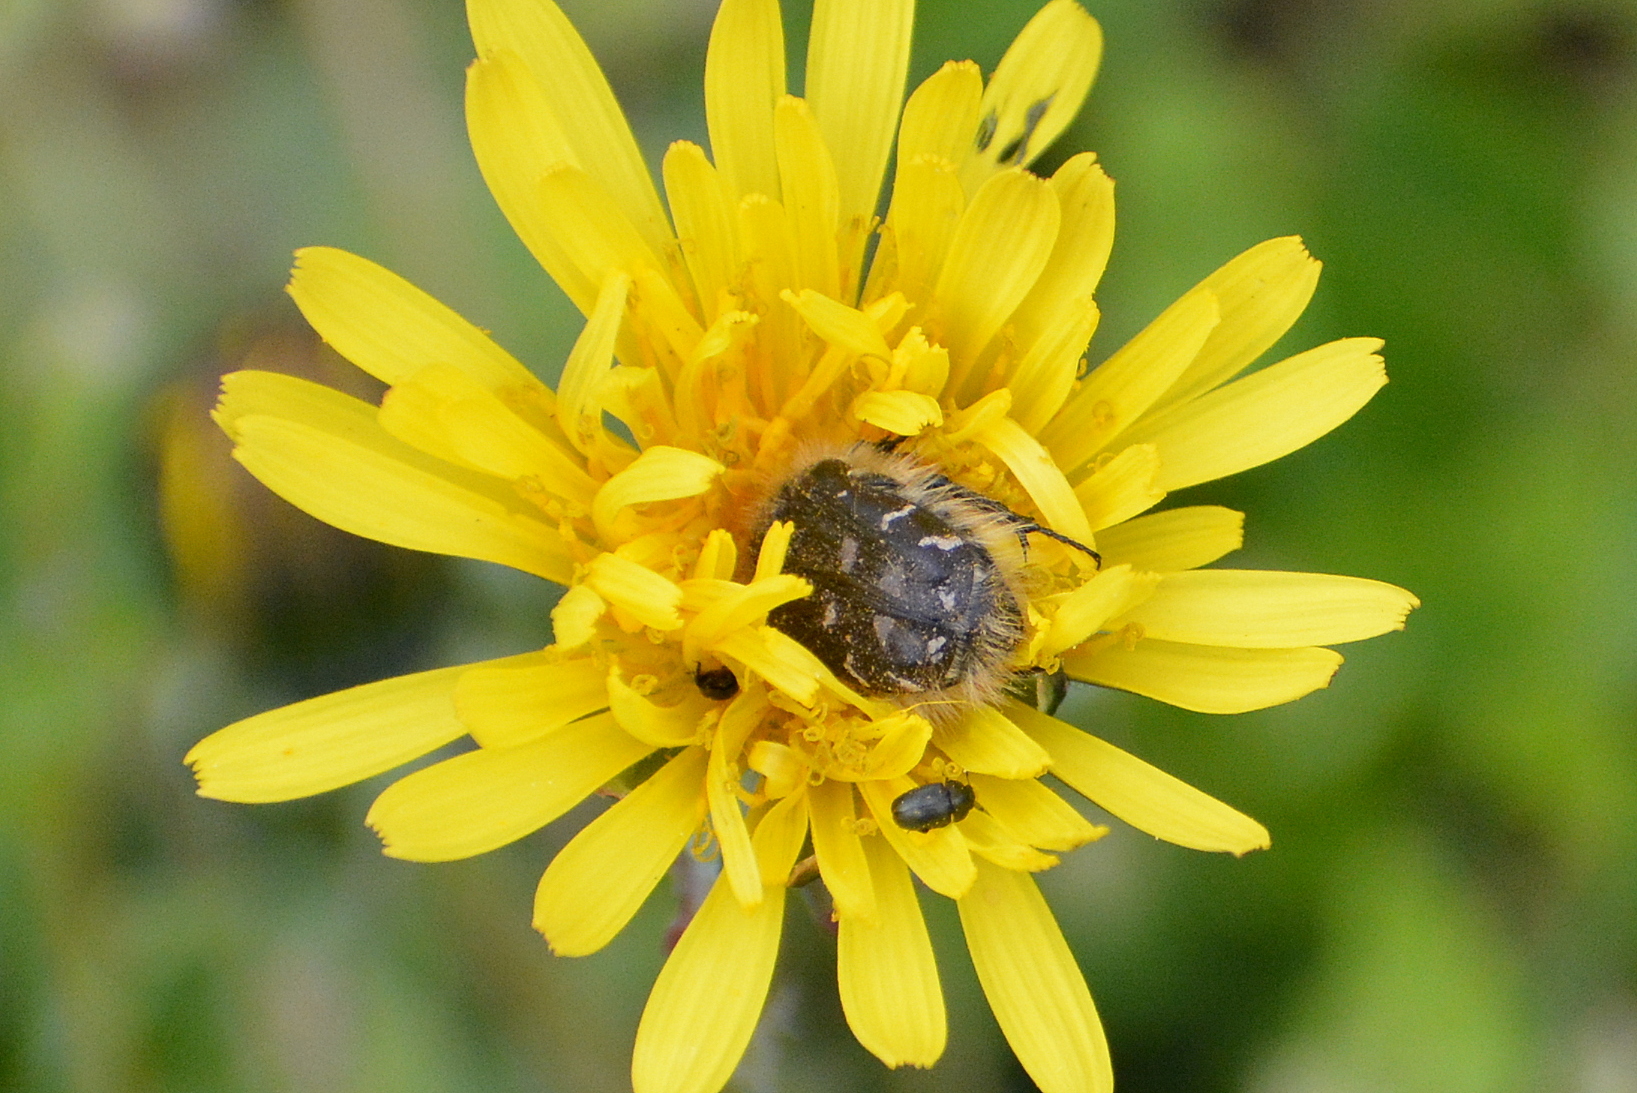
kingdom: Animalia
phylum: Arthropoda
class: Insecta
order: Coleoptera
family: Scarabaeidae
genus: Tropinota
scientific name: Tropinota hirta
